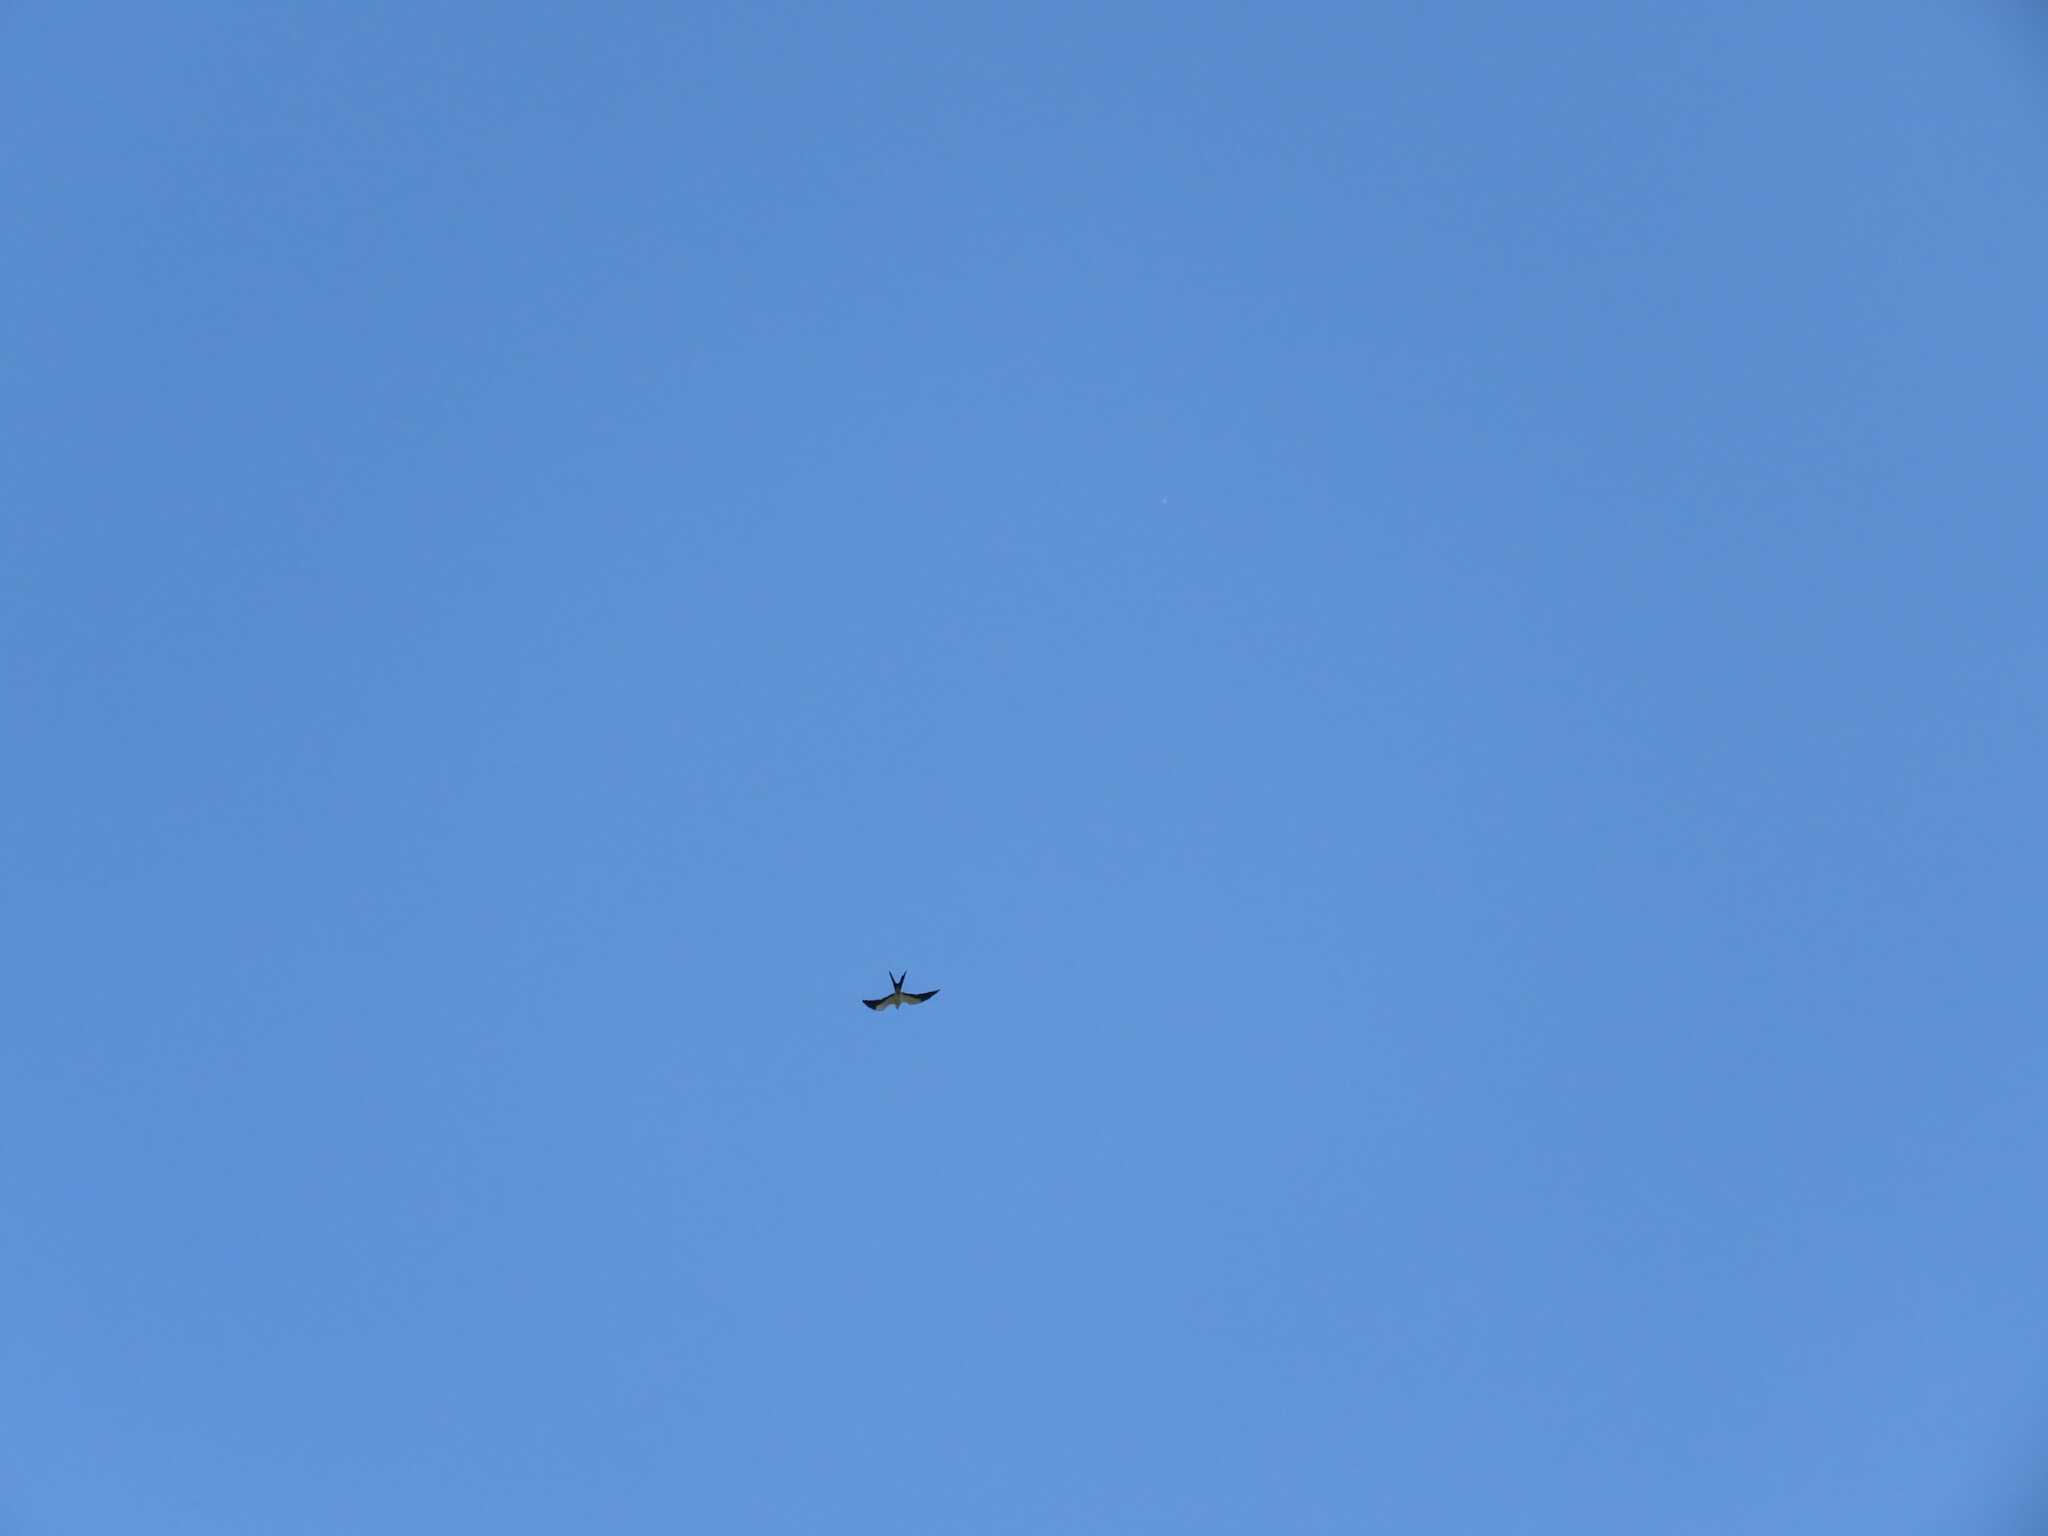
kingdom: Animalia
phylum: Chordata
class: Aves
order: Accipitriformes
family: Accipitridae
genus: Elanoides
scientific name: Elanoides forficatus
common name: Swallow-tailed kite
